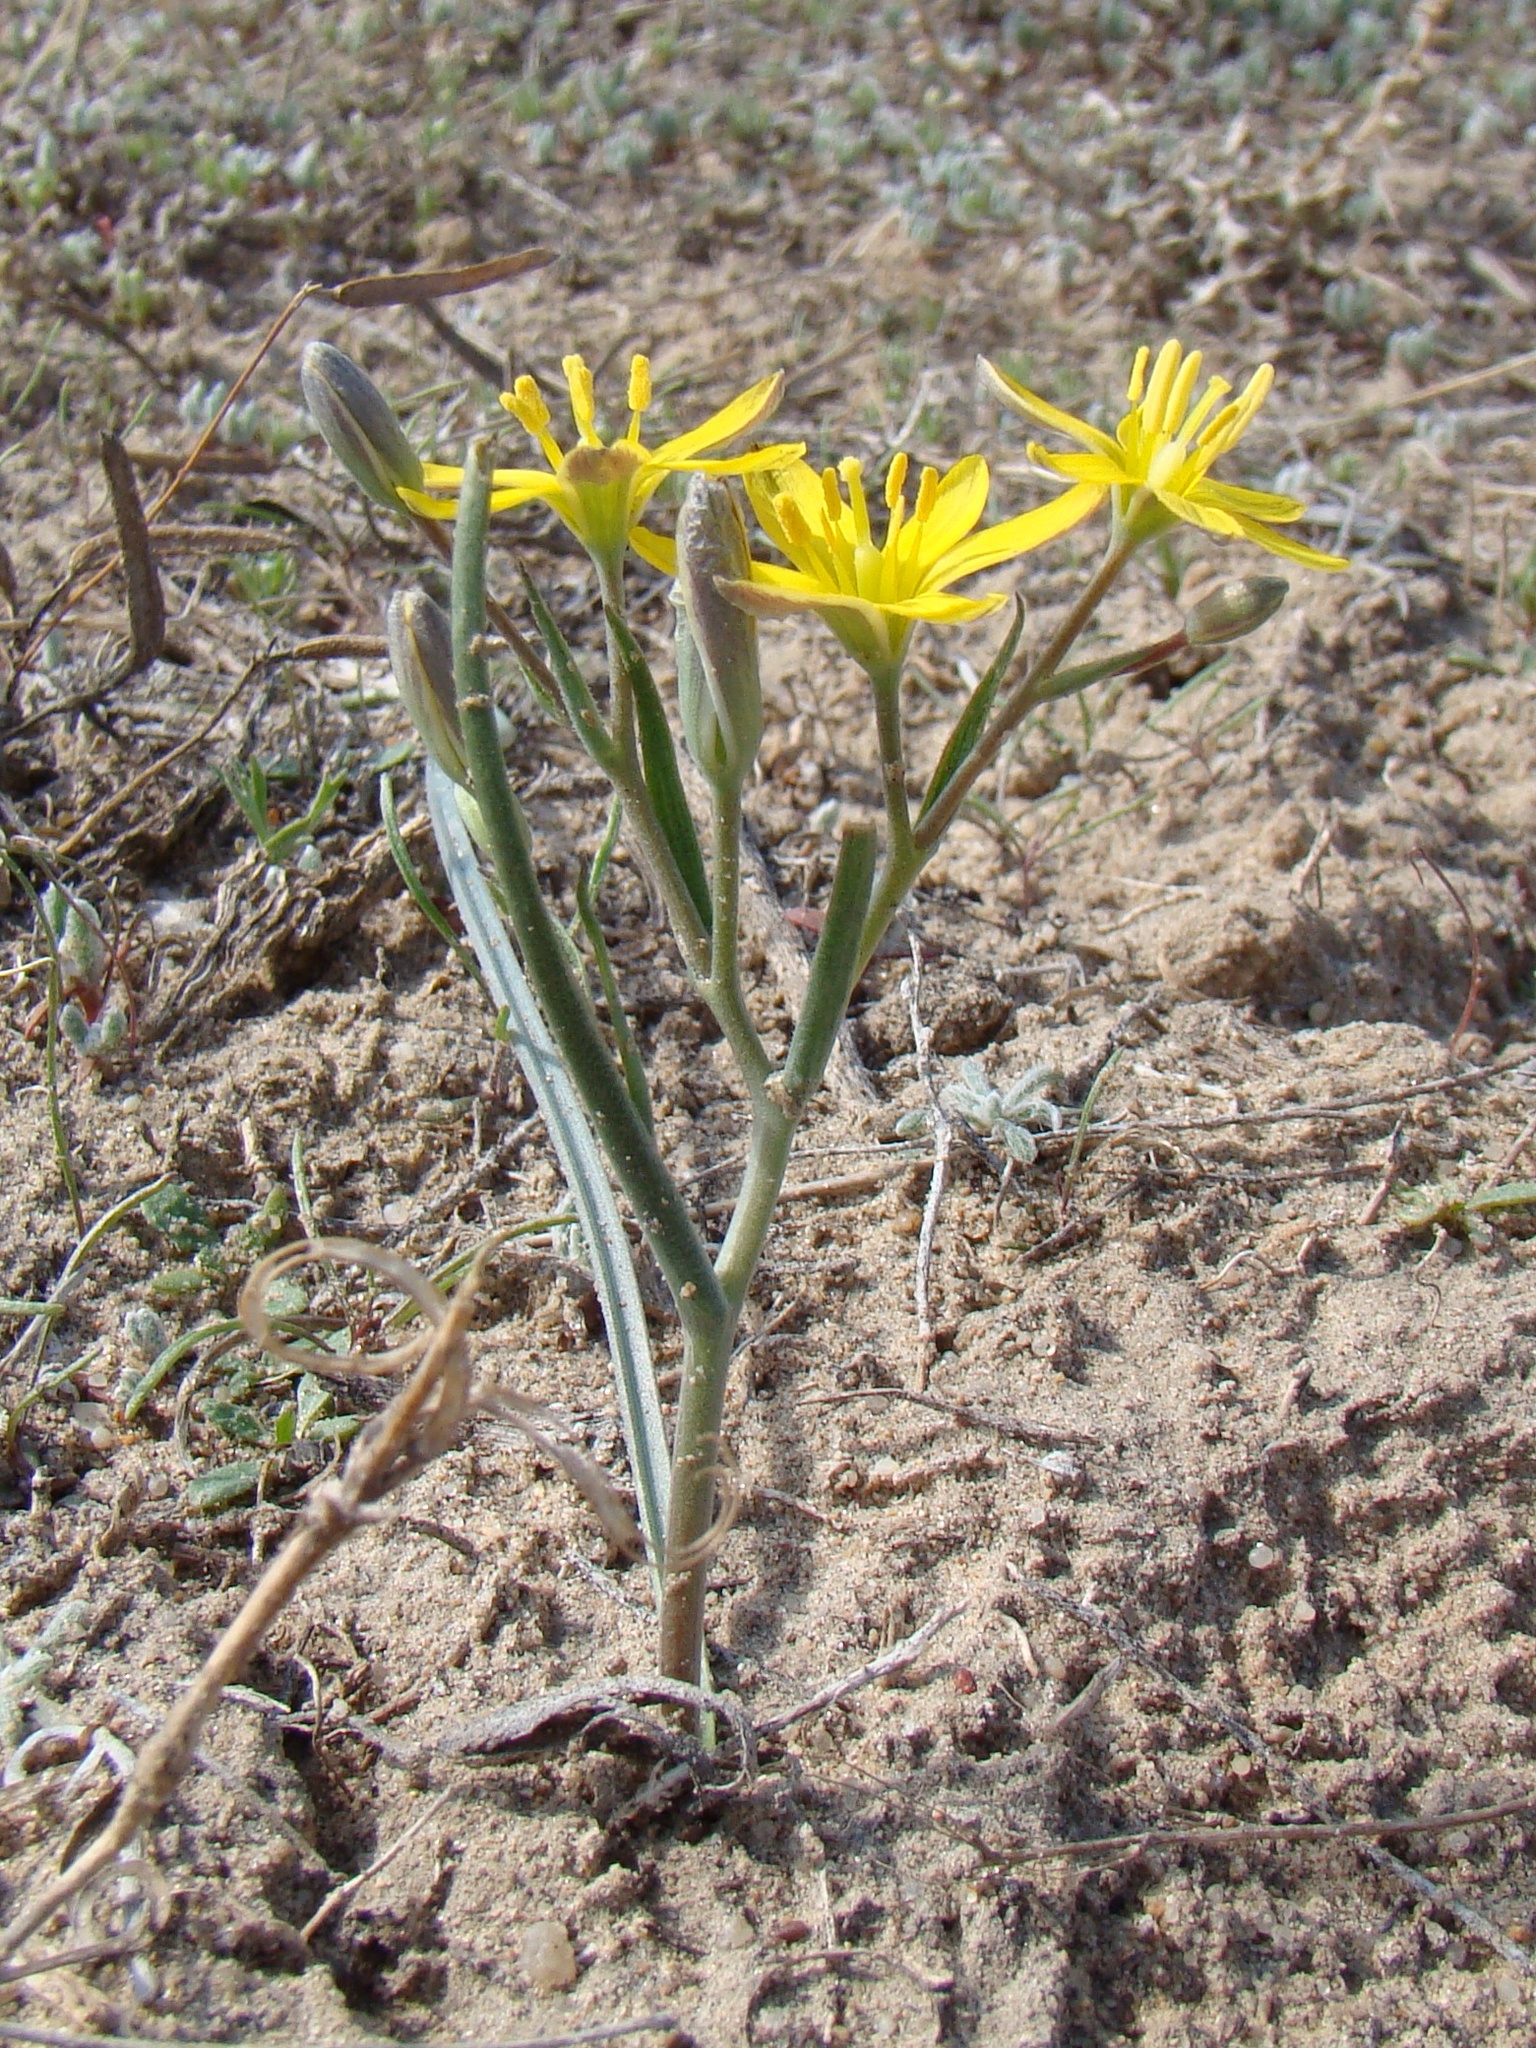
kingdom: Plantae
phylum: Tracheophyta
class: Liliopsida
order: Liliales
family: Liliaceae
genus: Gagea
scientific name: Gagea altaica
